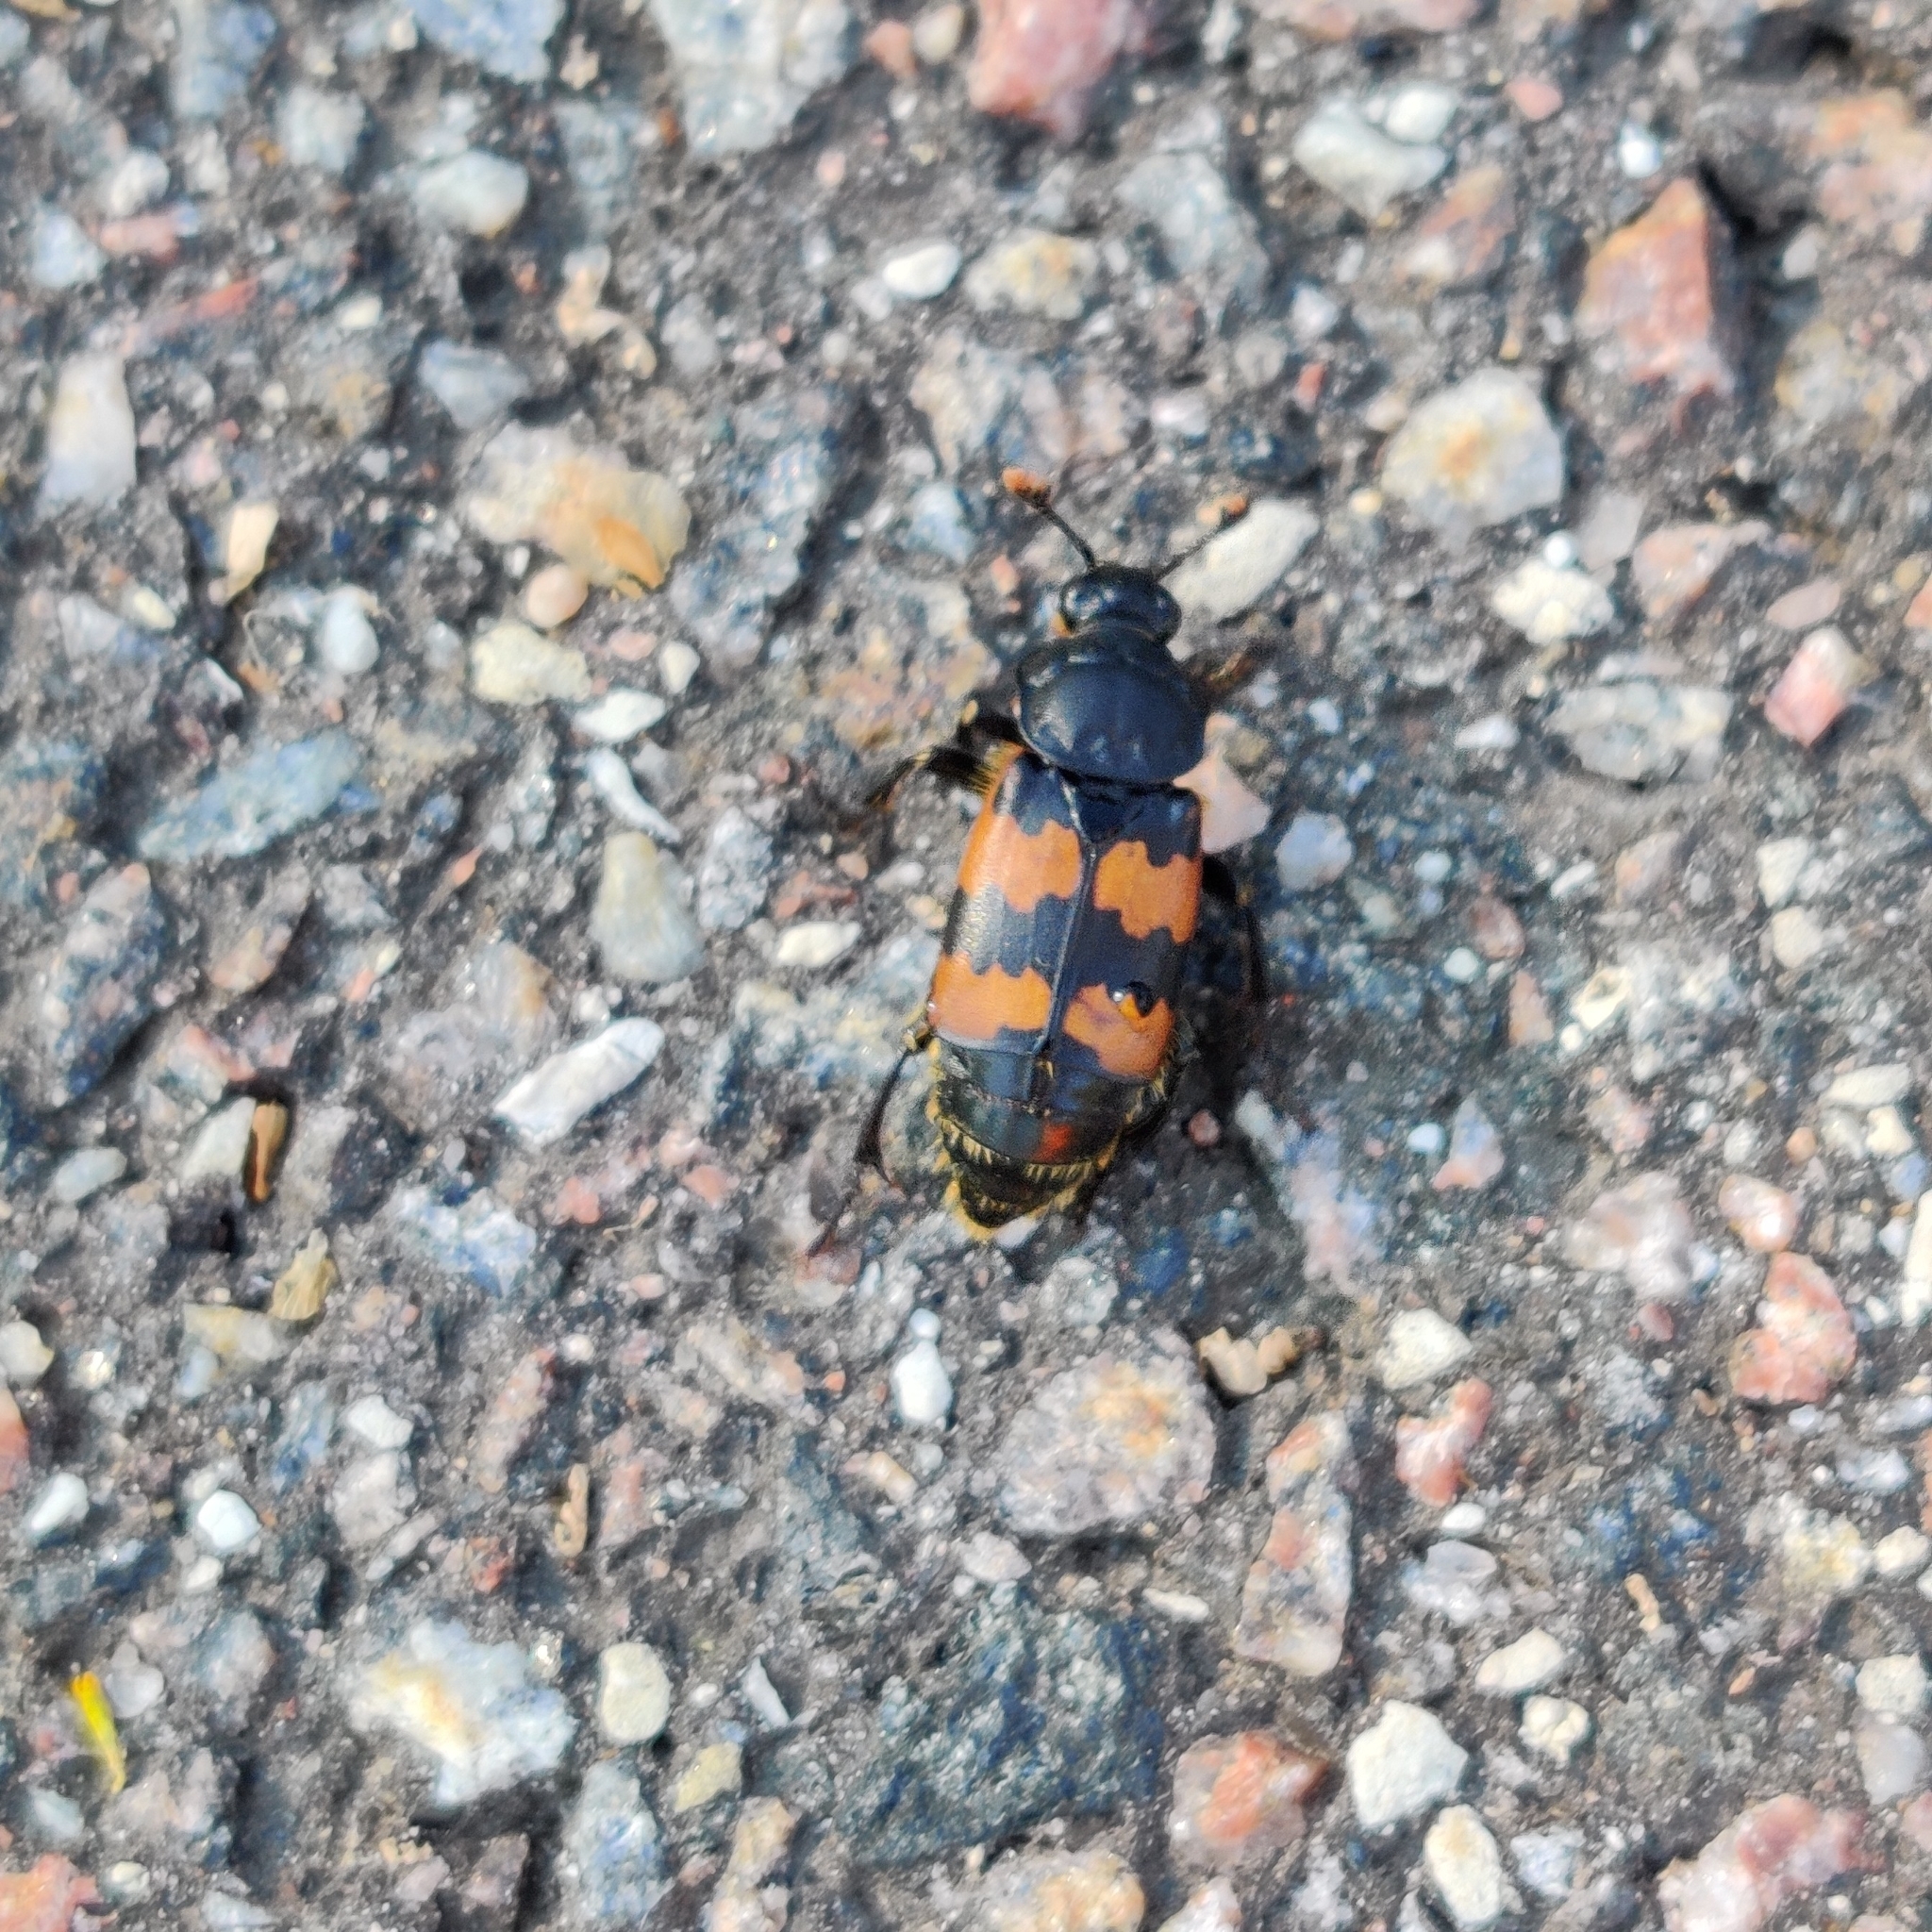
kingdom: Animalia
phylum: Arthropoda
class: Insecta
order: Coleoptera
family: Staphylinidae
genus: Nicrophorus
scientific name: Nicrophorus vespillo
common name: Common burying beetle
